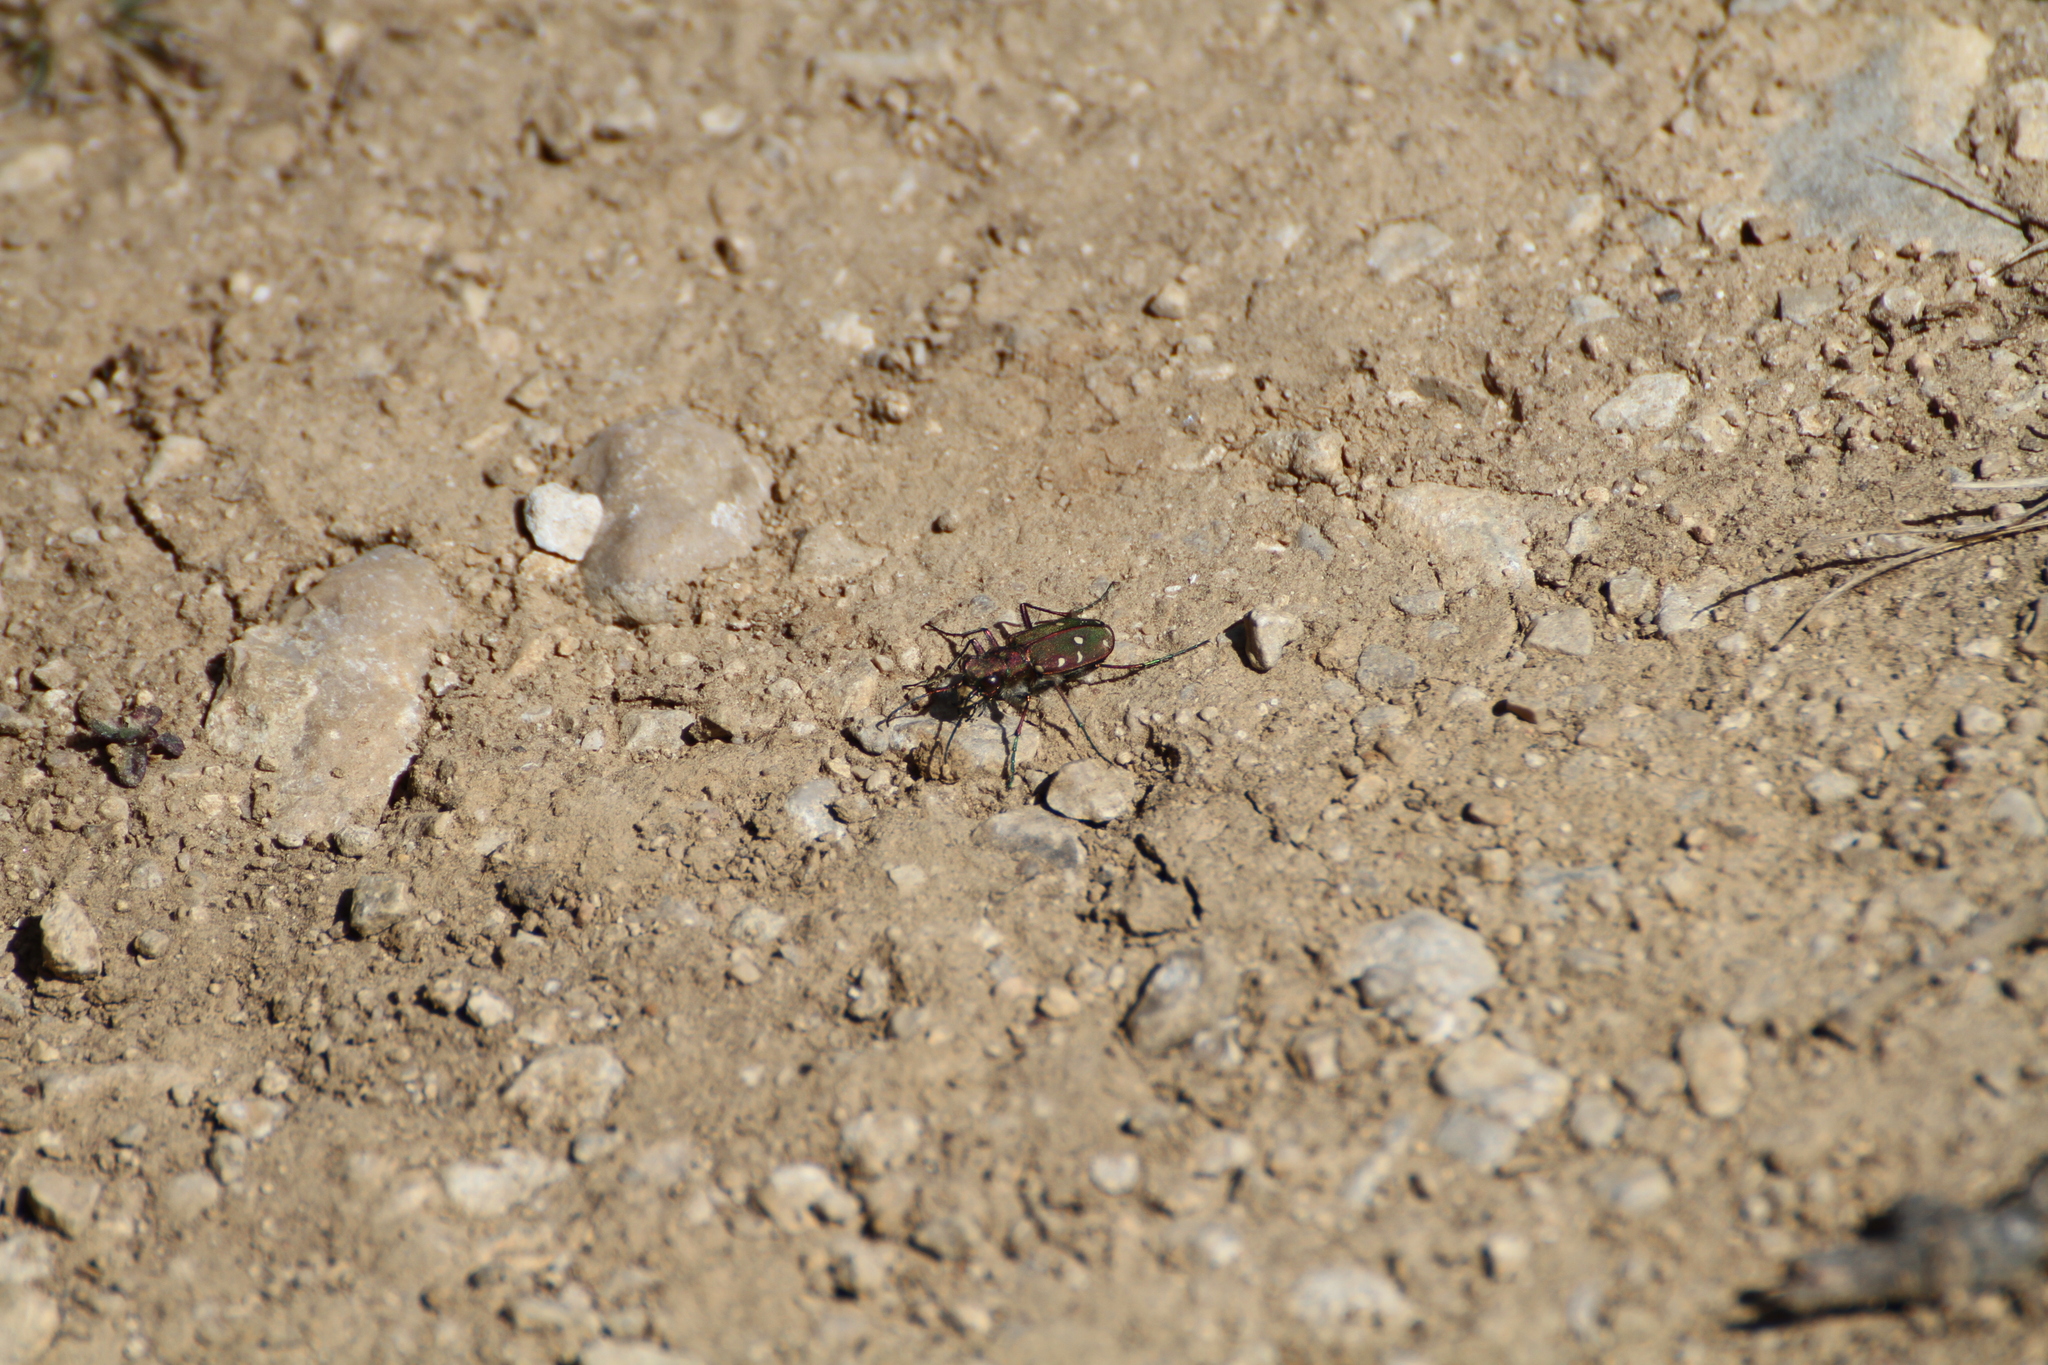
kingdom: Animalia
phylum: Arthropoda
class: Insecta
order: Coleoptera
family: Carabidae
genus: Cicindela
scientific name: Cicindela maroccana
